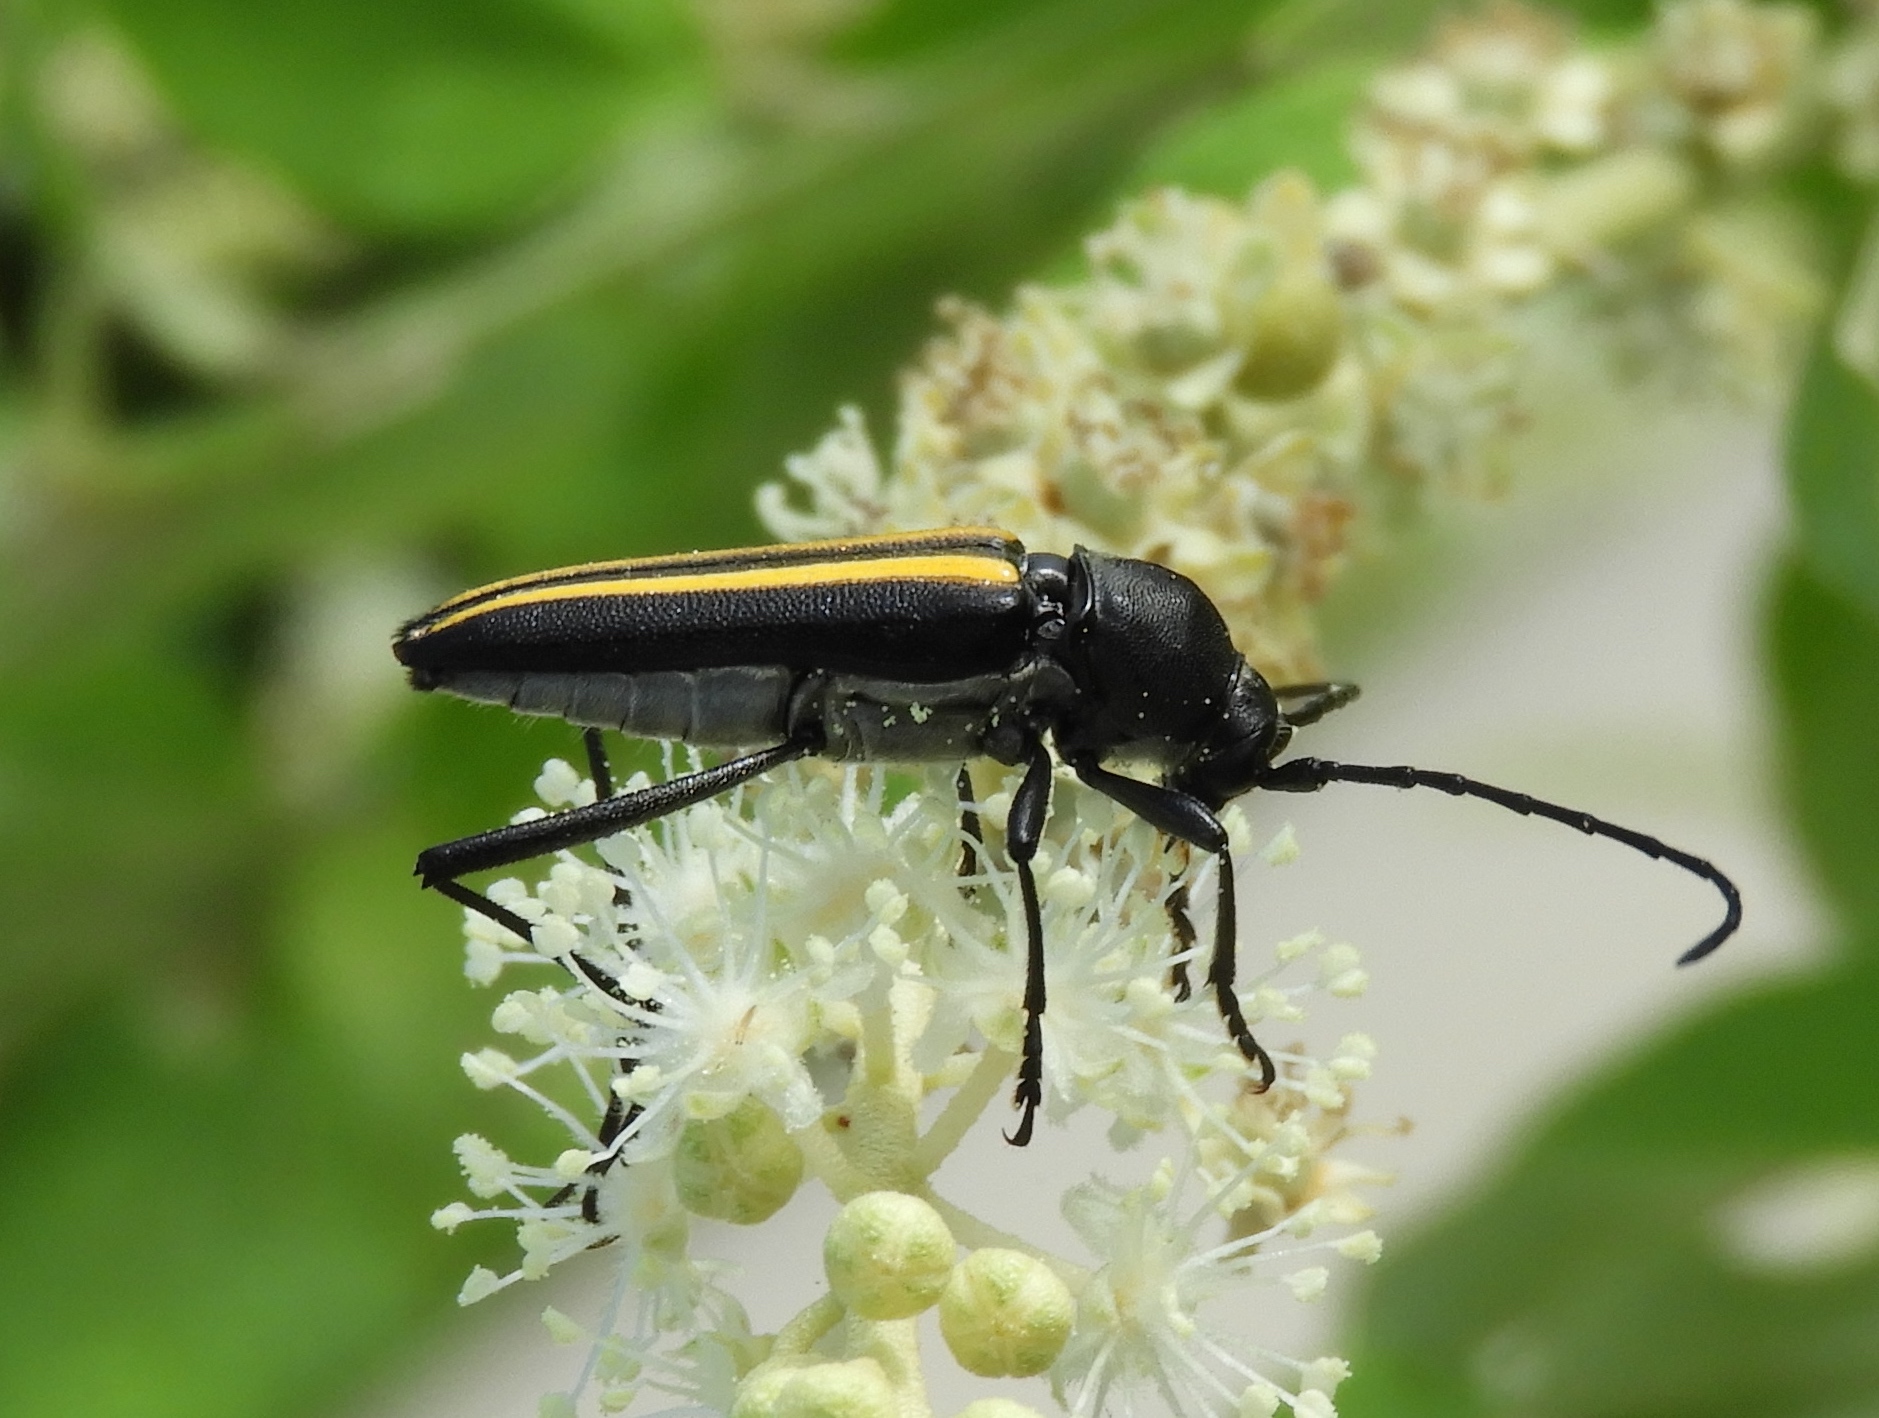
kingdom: Animalia
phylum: Arthropoda
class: Insecta
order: Coleoptera
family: Cerambycidae
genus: Lophalia
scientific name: Lophalia prolata
